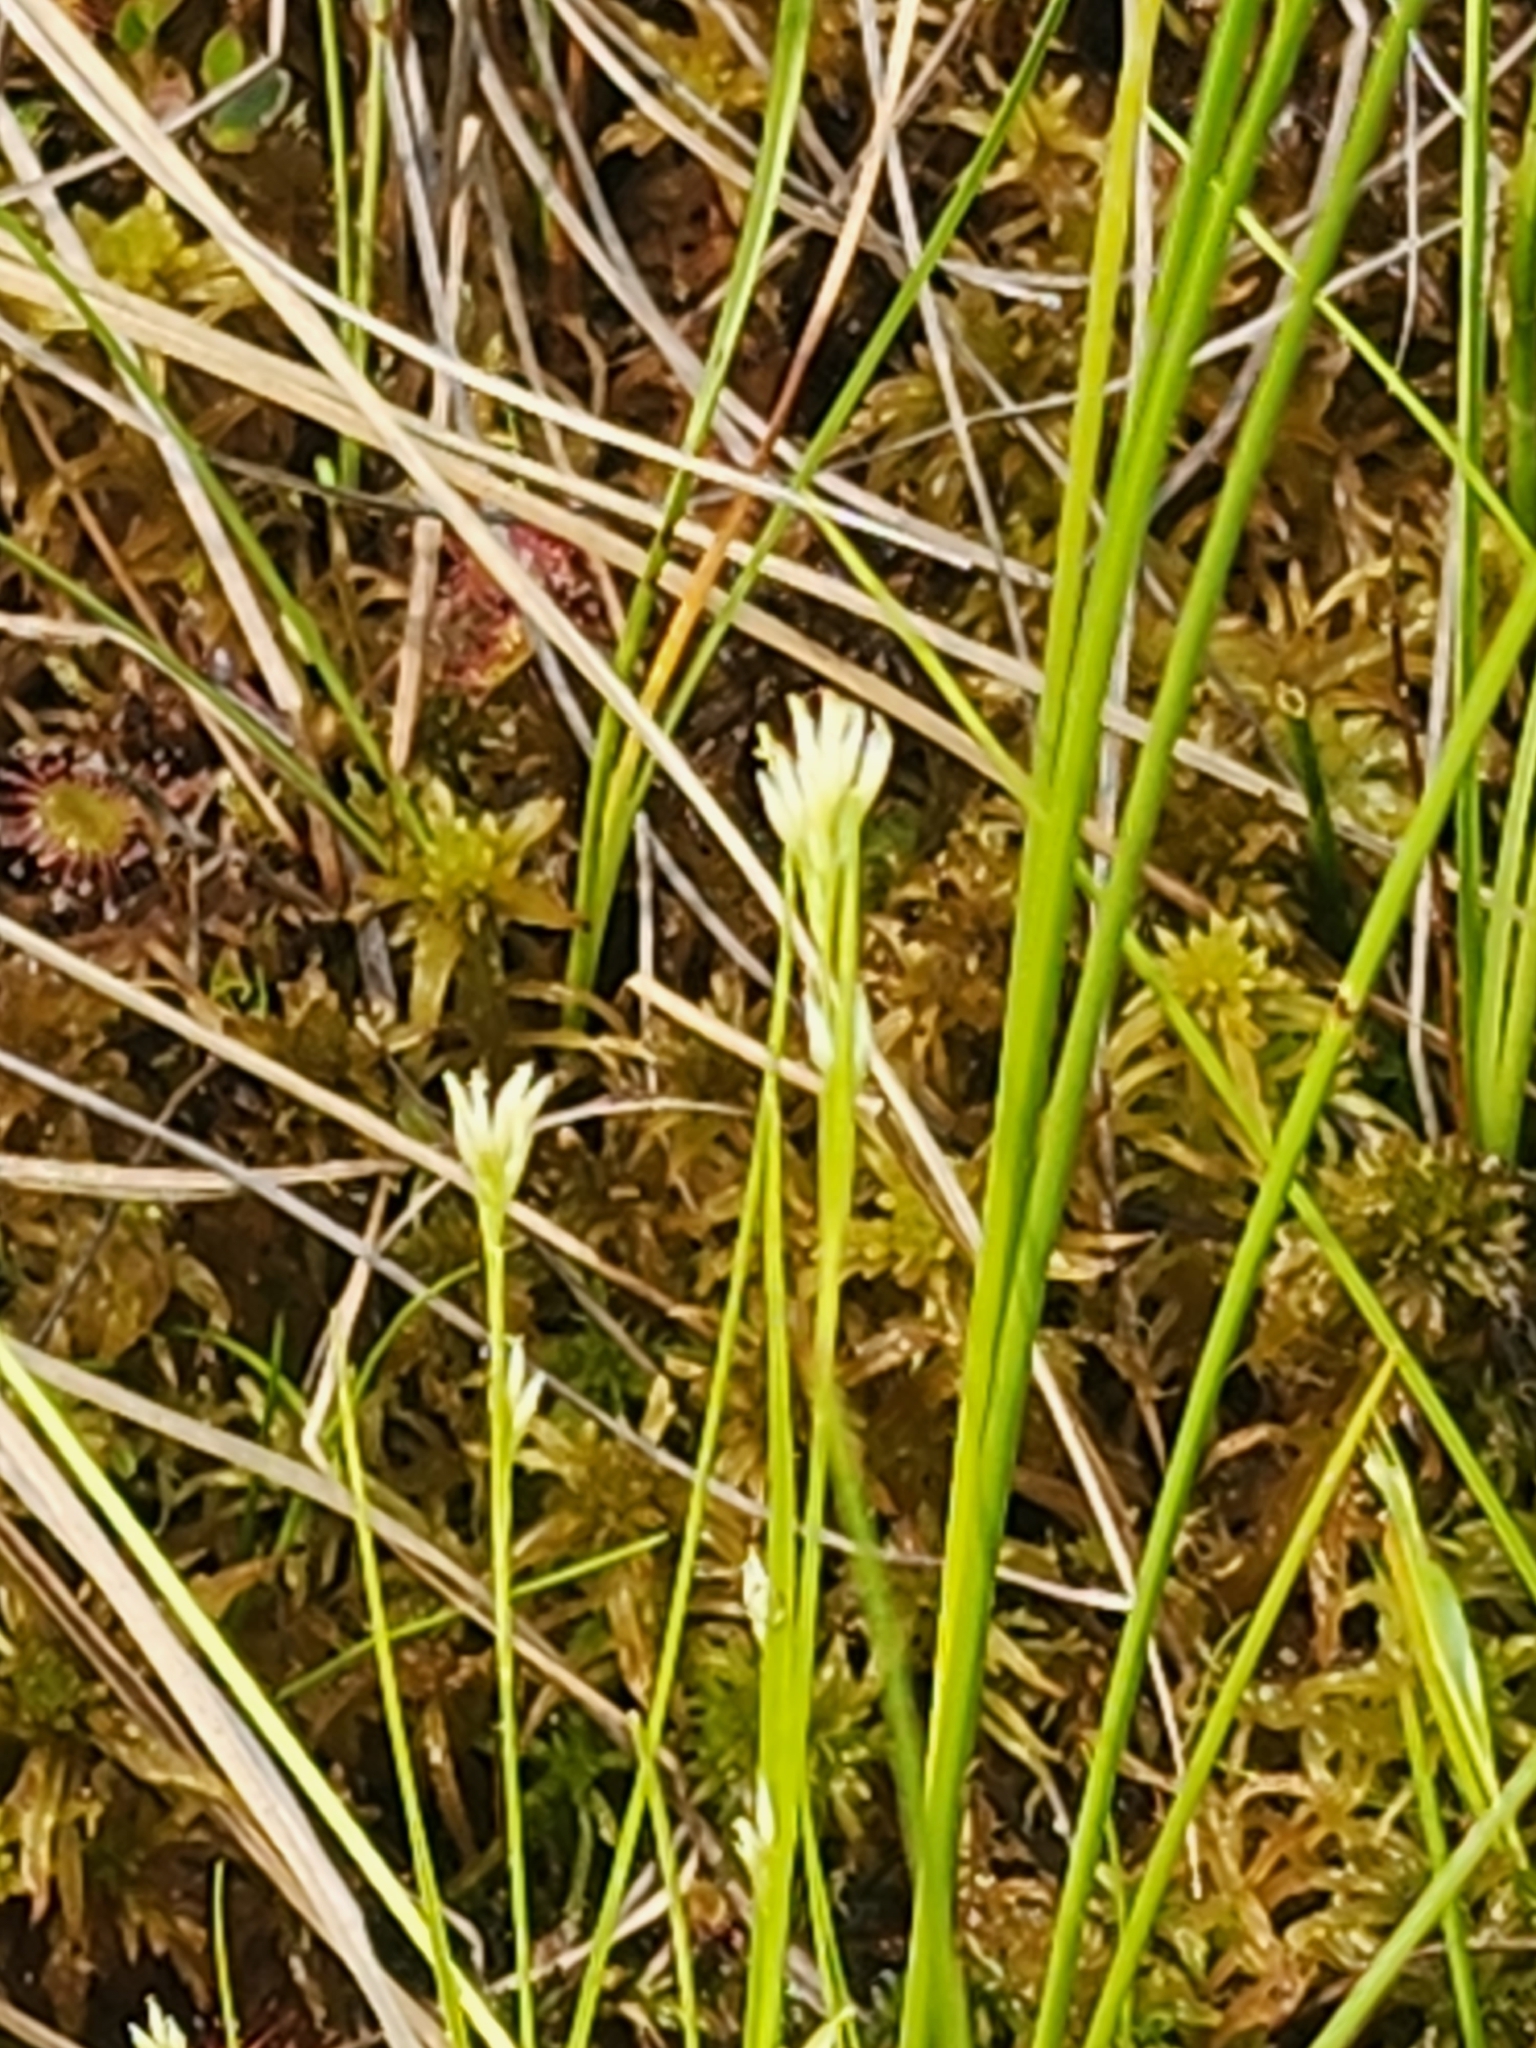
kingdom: Plantae
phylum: Tracheophyta
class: Liliopsida
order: Poales
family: Cyperaceae
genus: Rhynchospora
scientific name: Rhynchospora alba
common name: White beak-sedge
